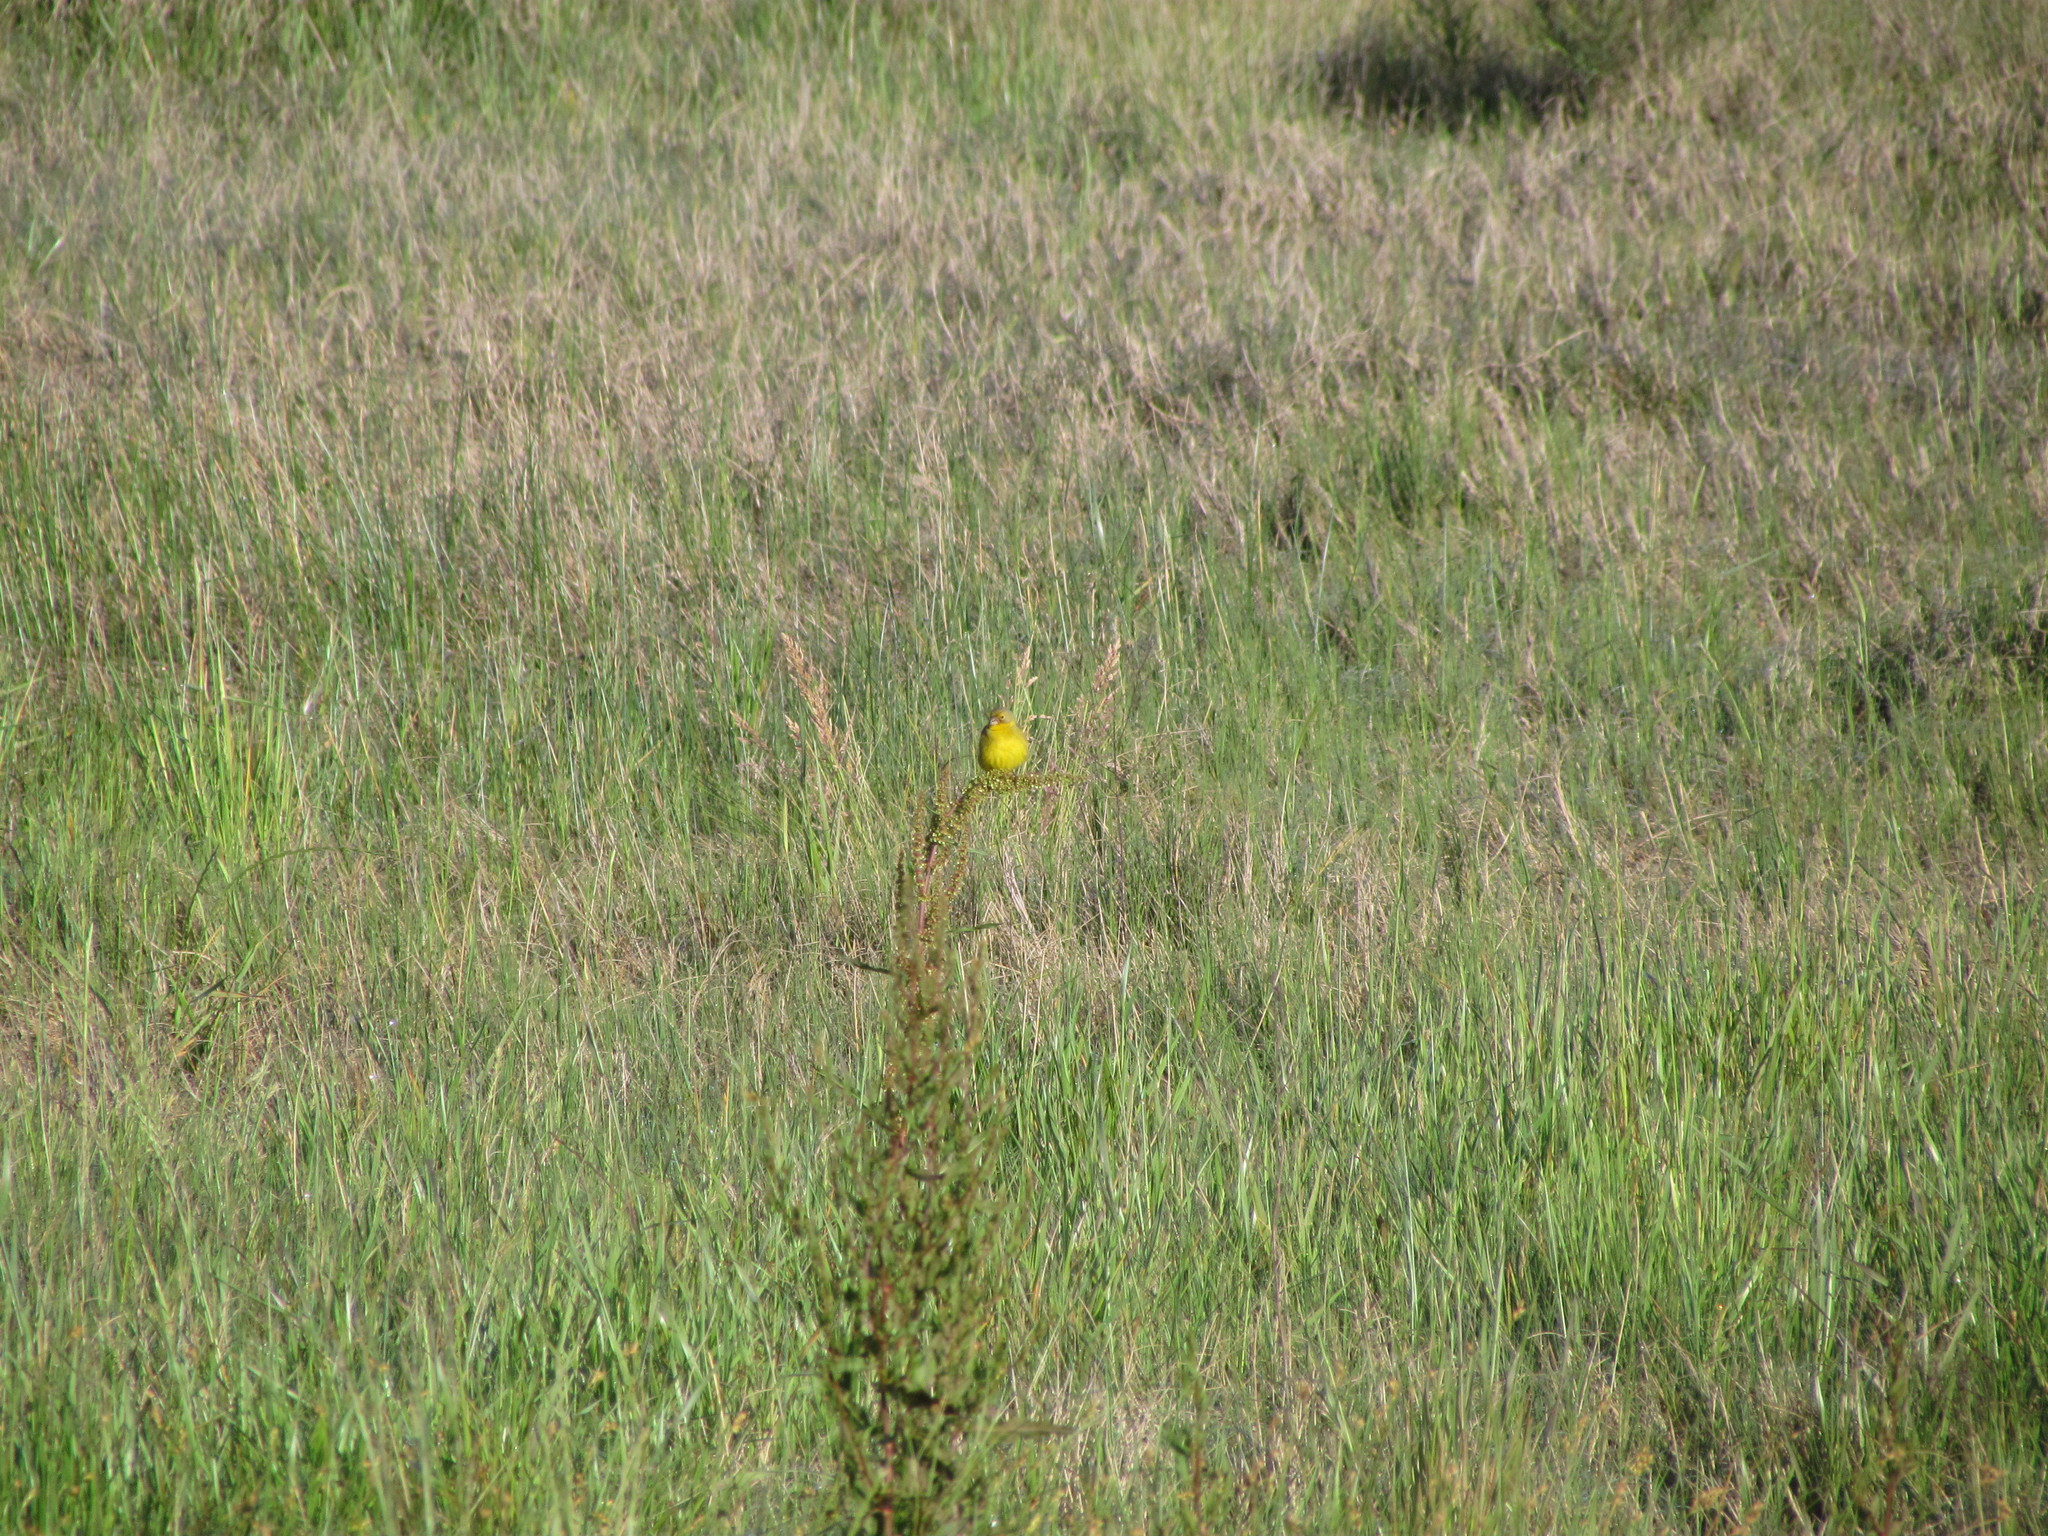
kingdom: Animalia
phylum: Chordata
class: Aves
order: Passeriformes
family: Thraupidae
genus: Sicalis
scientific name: Sicalis luteola
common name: Grassland yellow-finch
